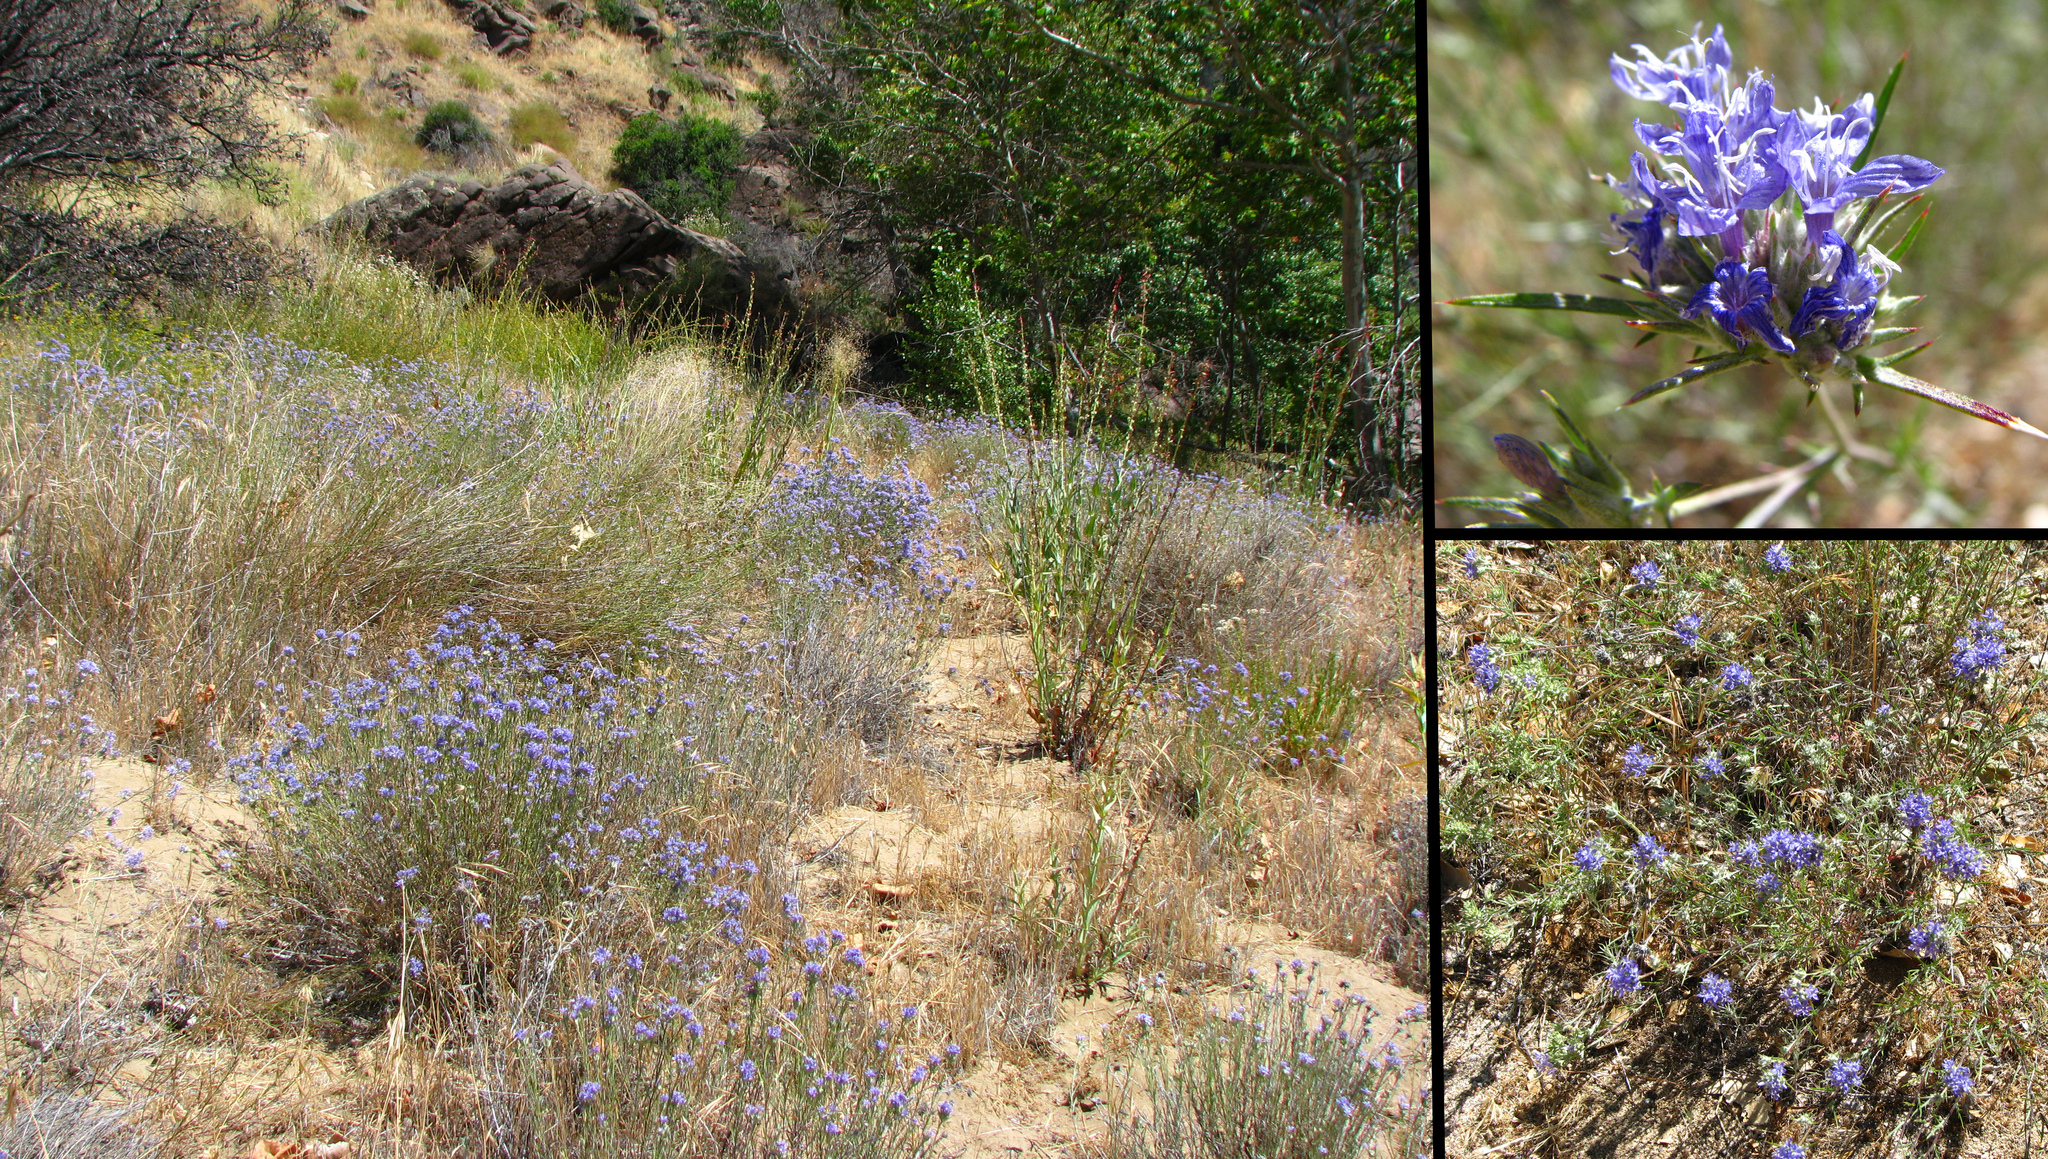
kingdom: Plantae
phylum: Tracheophyta
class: Magnoliopsida
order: Ericales
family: Polemoniaceae
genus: Eriastrum
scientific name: Eriastrum densifolium
